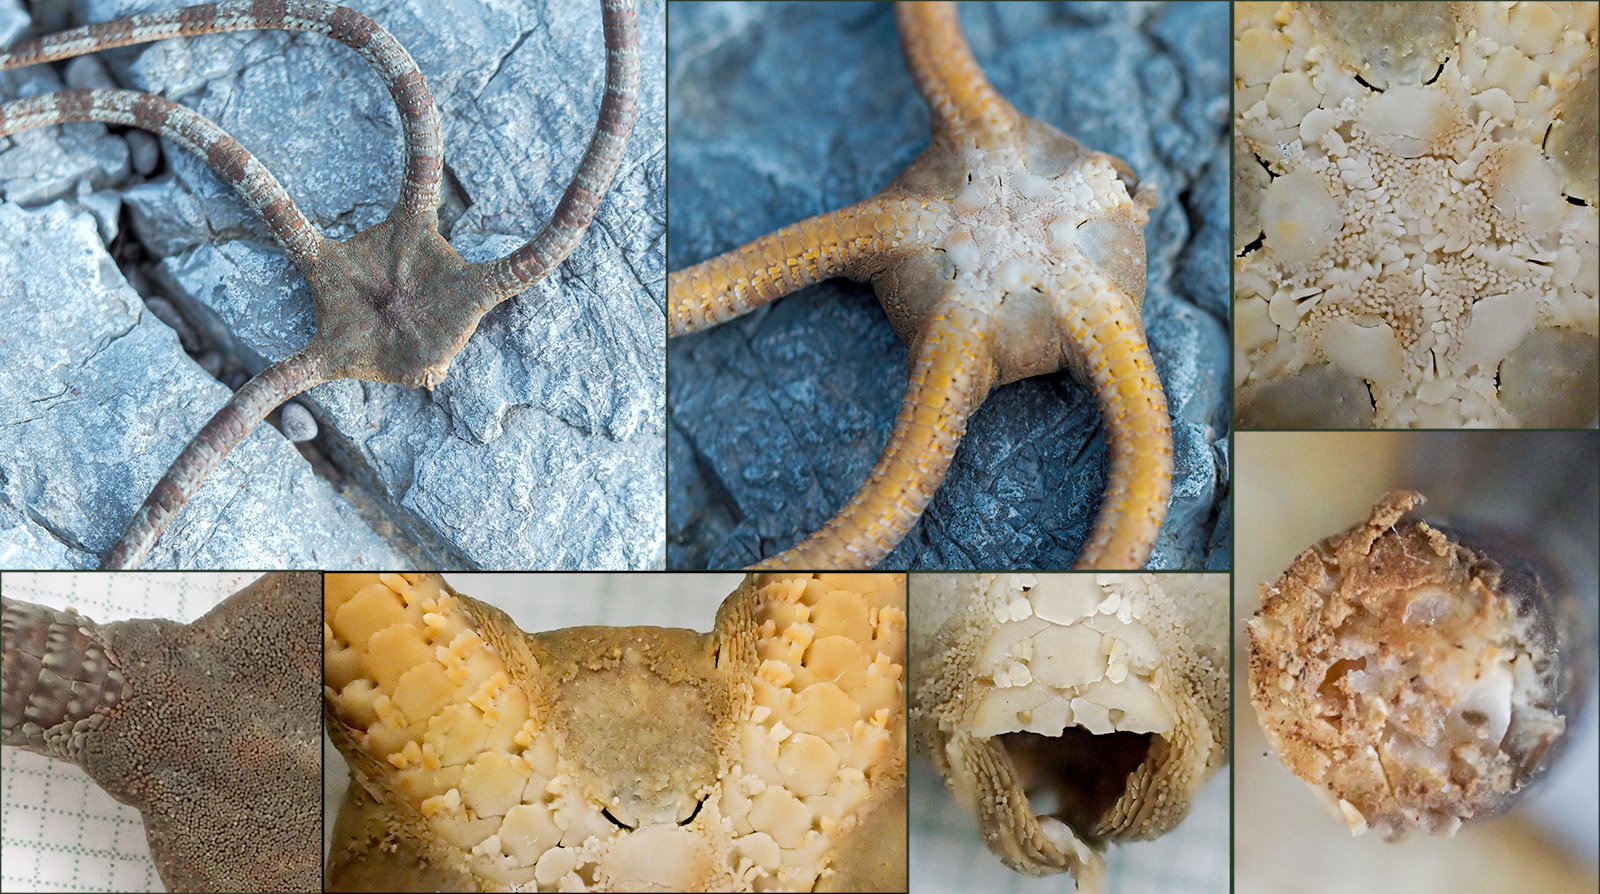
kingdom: Animalia
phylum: Echinodermata
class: Ophiuroidea
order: Ophiacanthida
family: Ophiodermatidae
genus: Ophioderma
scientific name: Ophioderma longicaudum
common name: Smooth brittle-star
